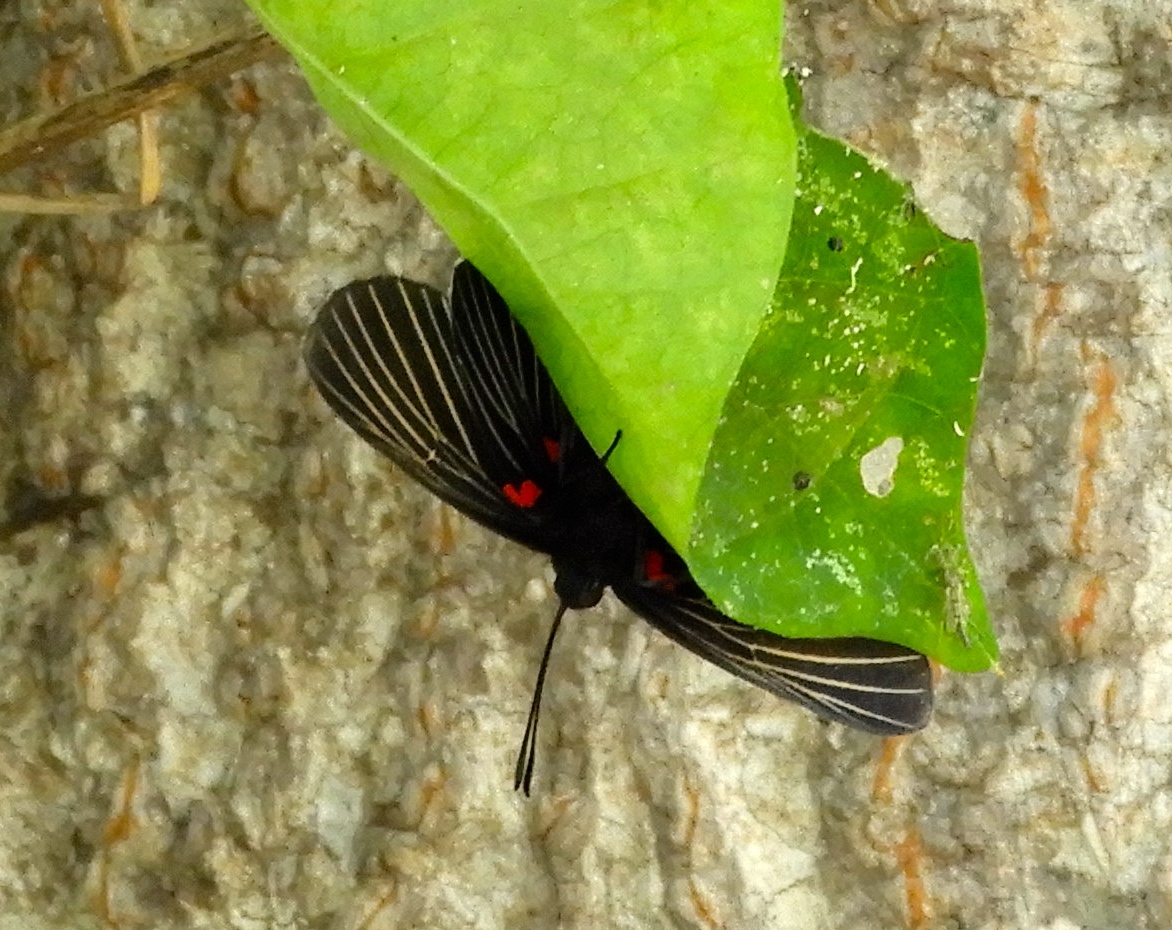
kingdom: Animalia
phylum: Arthropoda
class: Insecta
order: Lepidoptera
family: Lycaenidae
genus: Melanis
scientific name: Melanis
